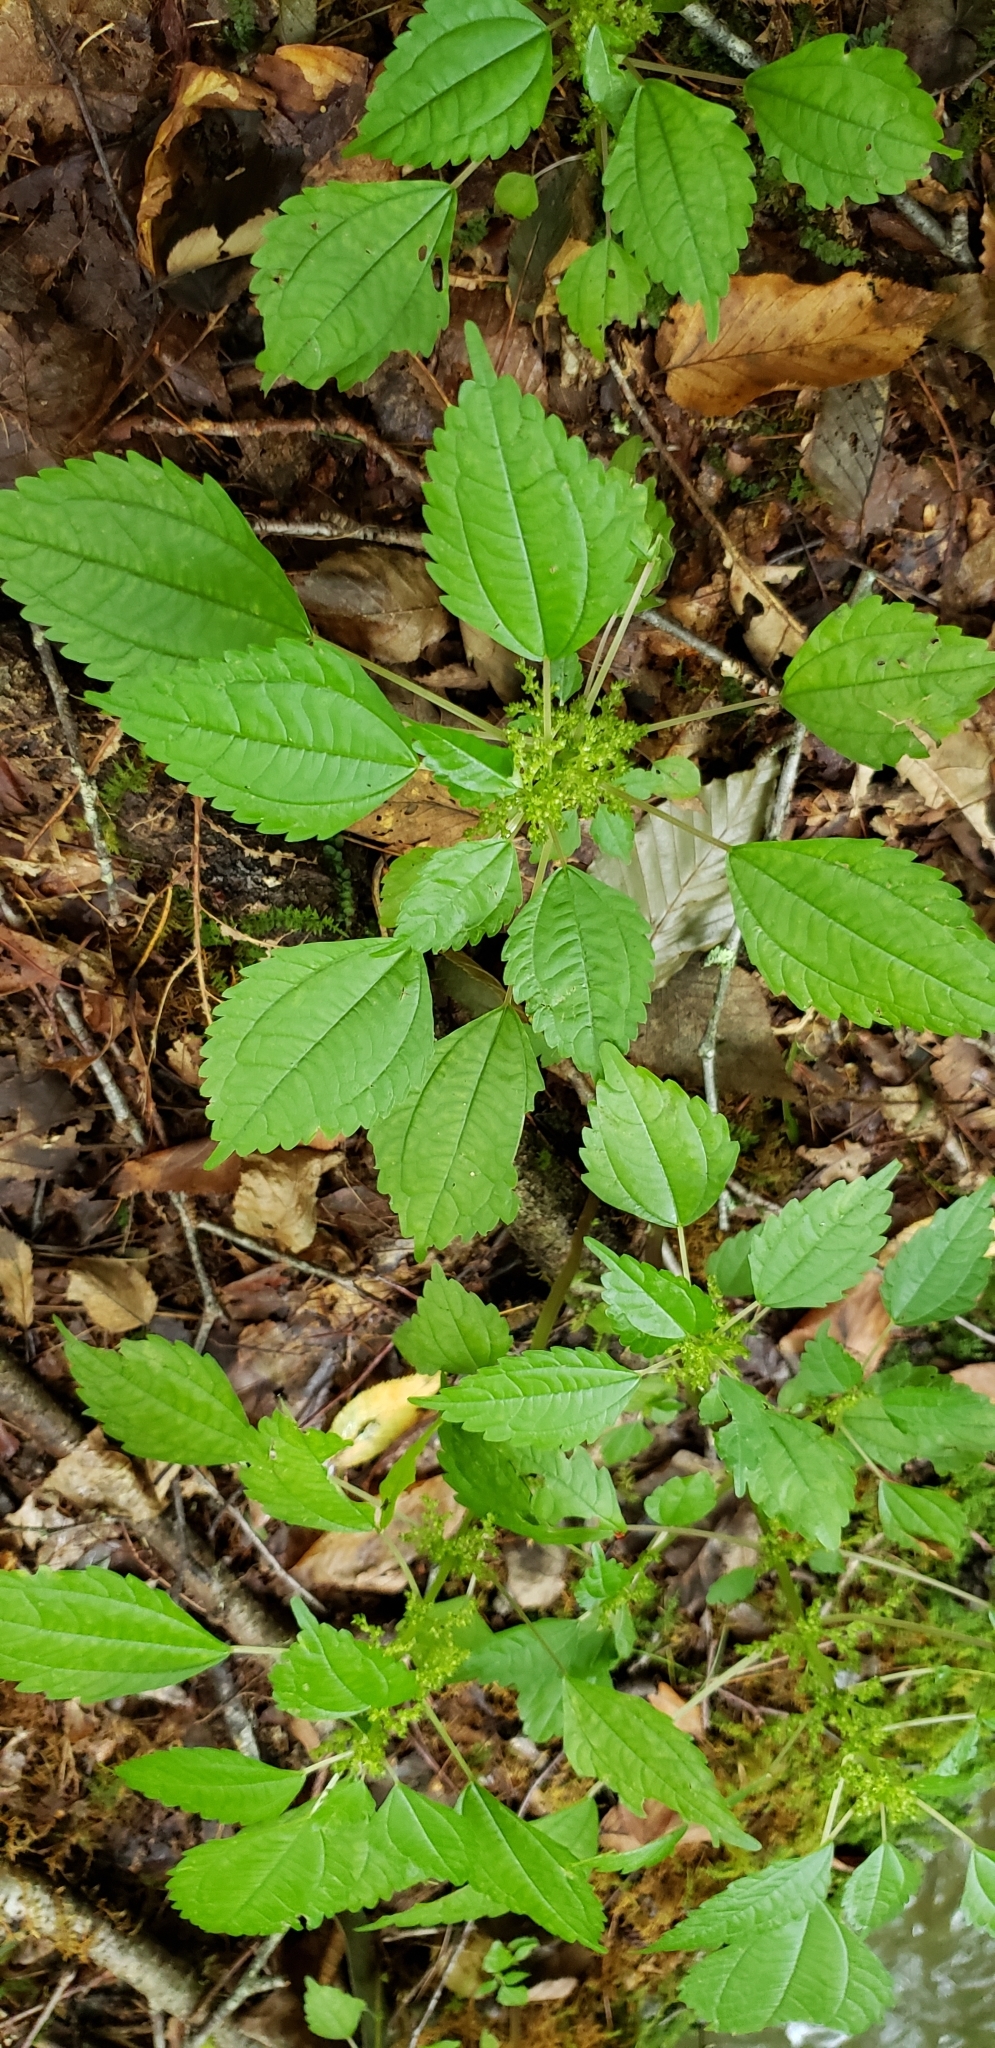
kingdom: Plantae
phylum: Tracheophyta
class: Magnoliopsida
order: Rosales
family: Urticaceae
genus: Pilea
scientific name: Pilea pumila
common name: Clearweed
